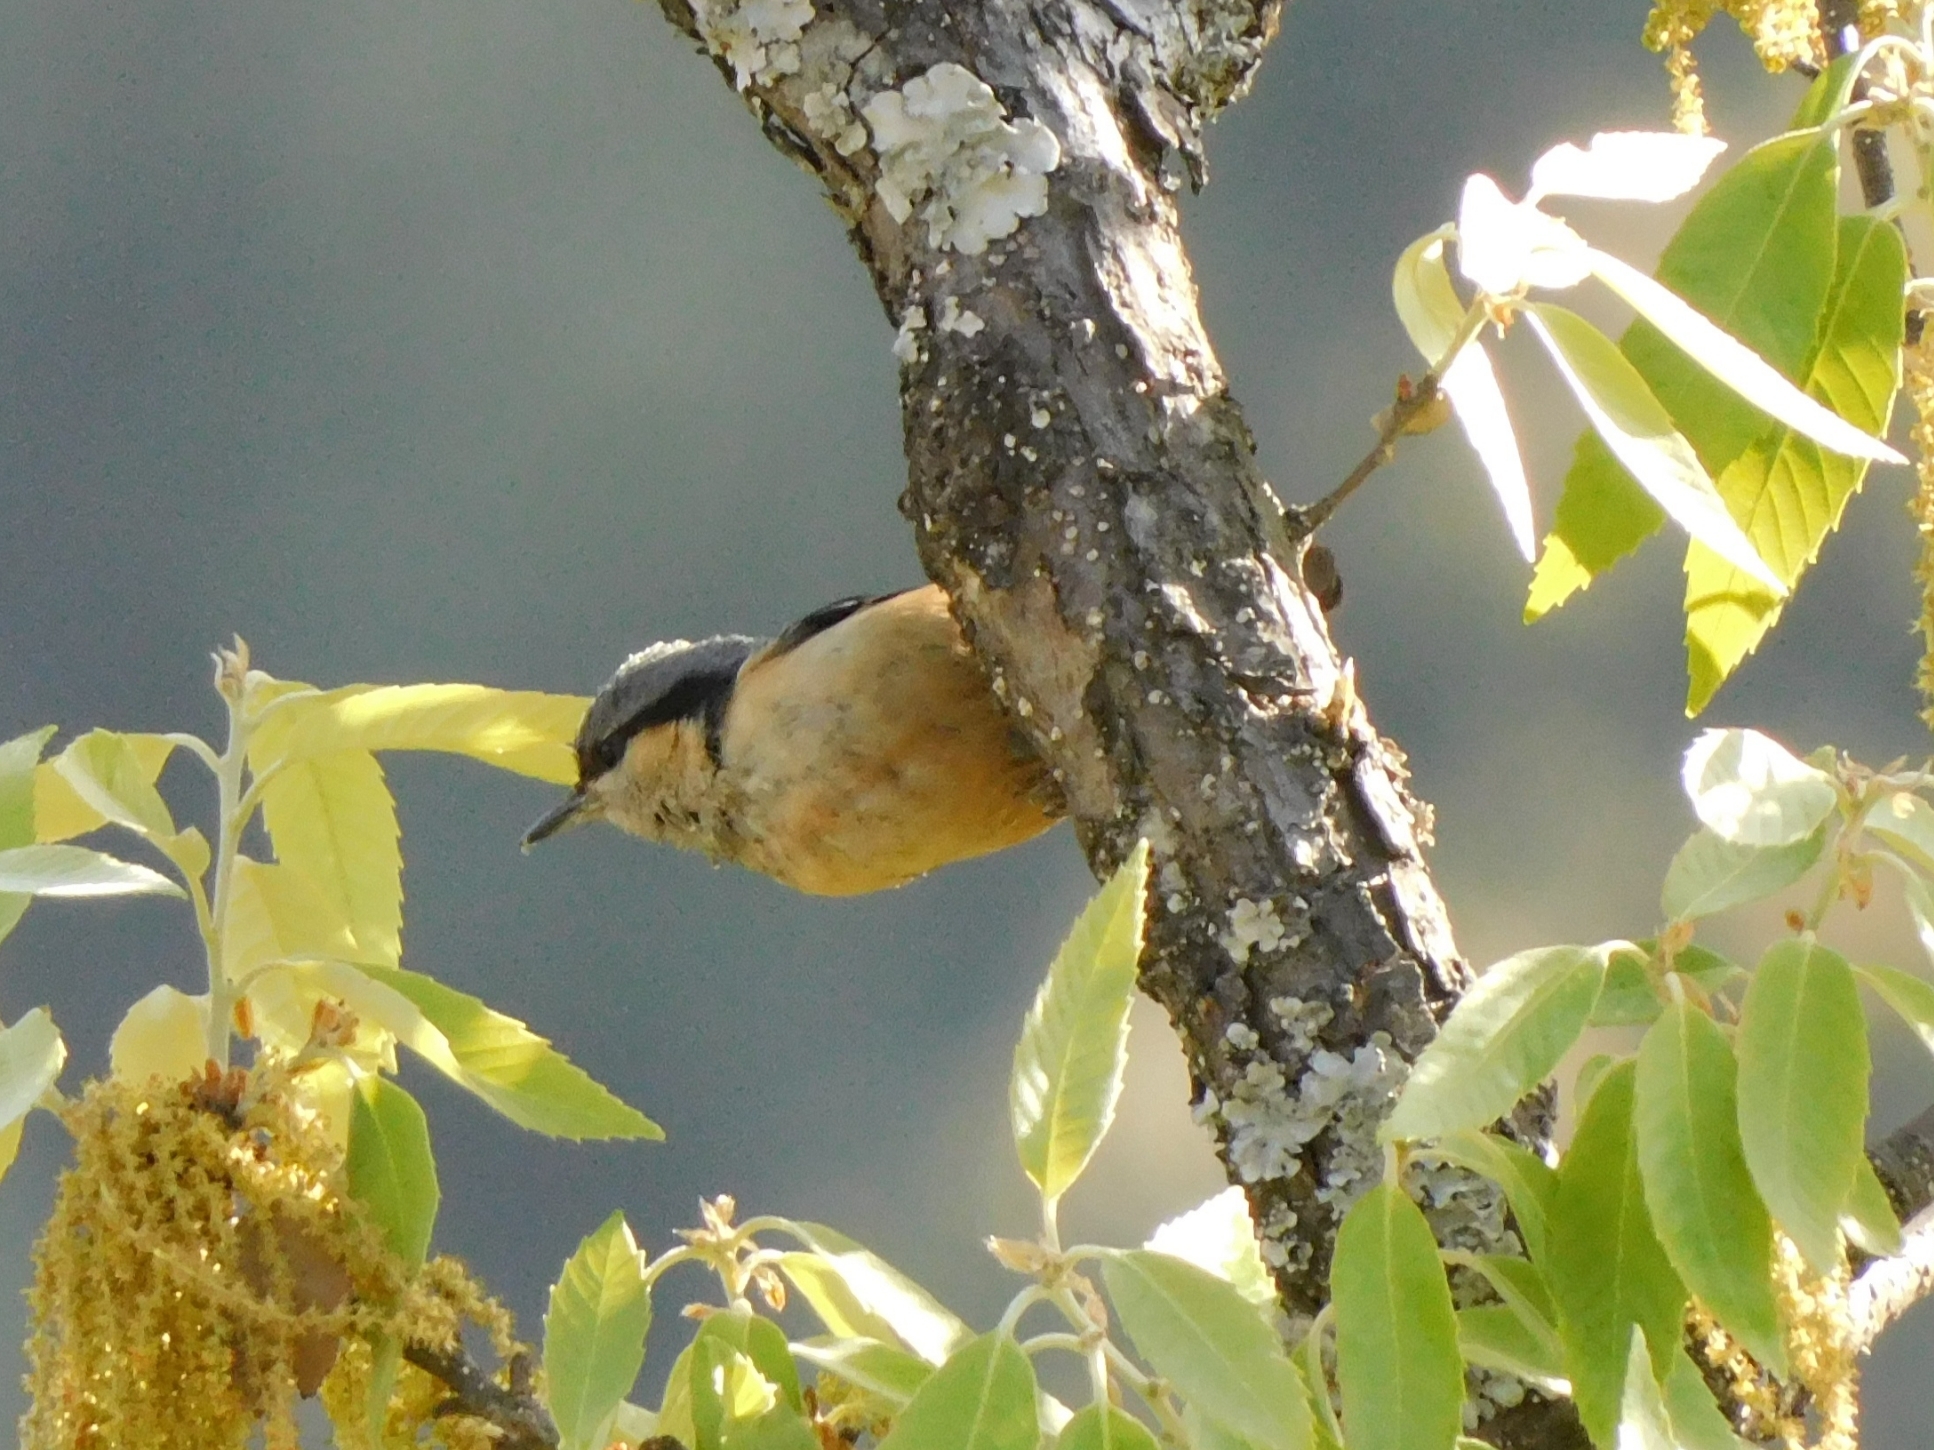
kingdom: Animalia
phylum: Chordata
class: Aves
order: Passeriformes
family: Sittidae
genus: Sitta
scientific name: Sitta himalayensis
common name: White-tailed nuthatch
